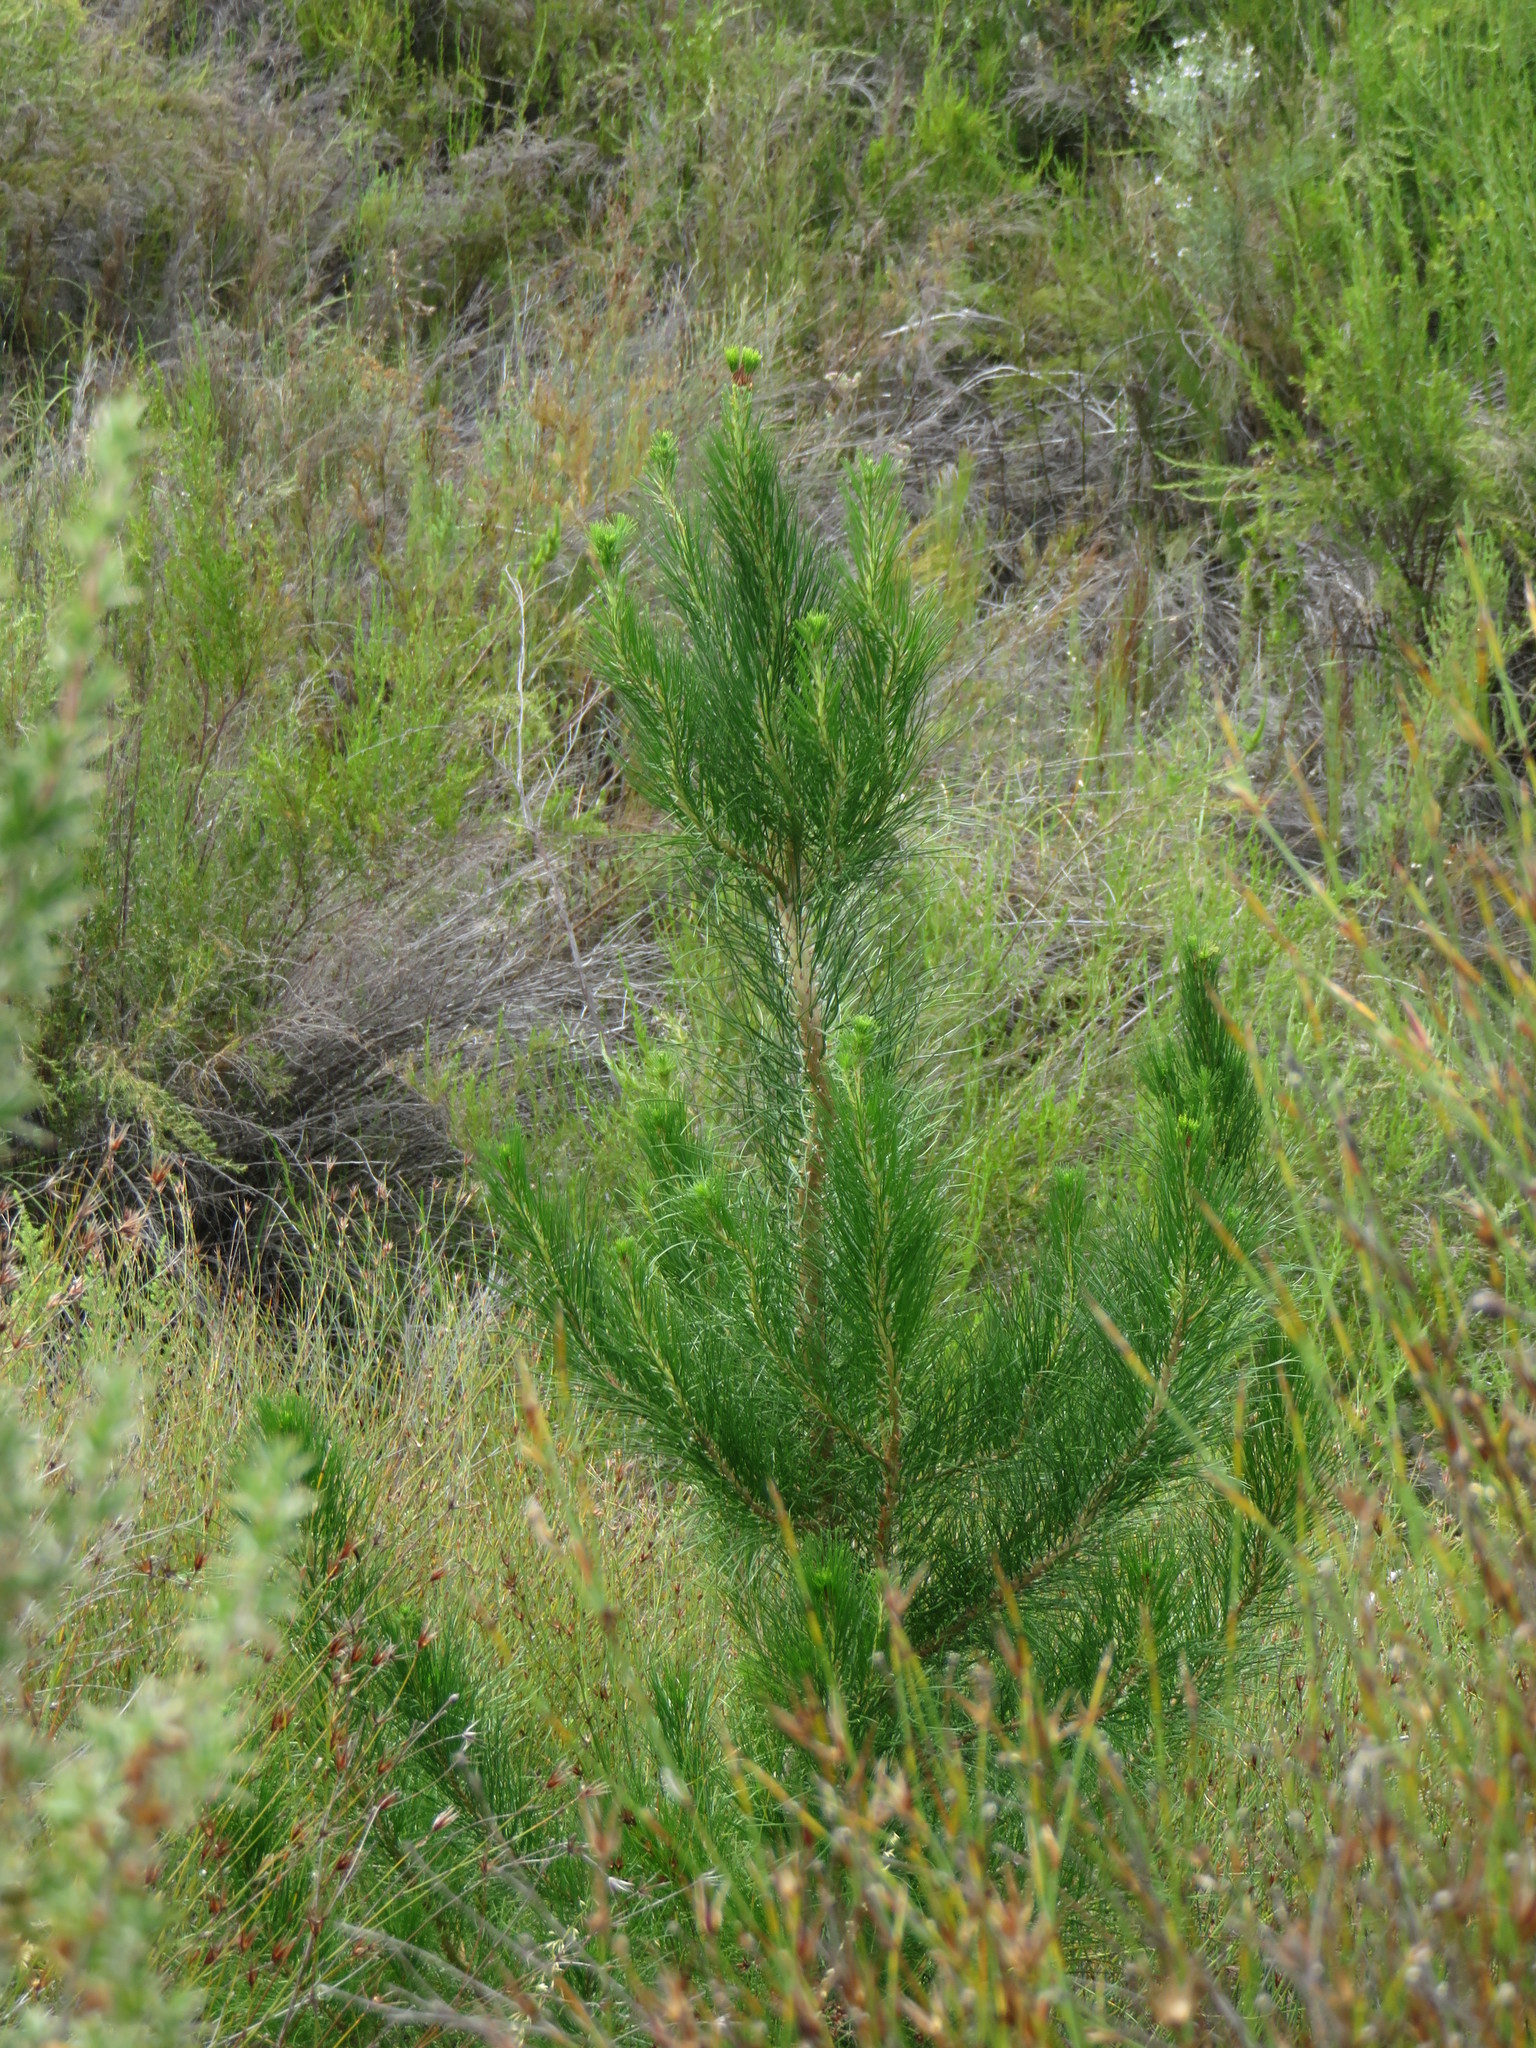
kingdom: Plantae
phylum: Tracheophyta
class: Pinopsida
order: Pinales
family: Pinaceae
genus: Pinus
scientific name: Pinus radiata
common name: Monterey pine
